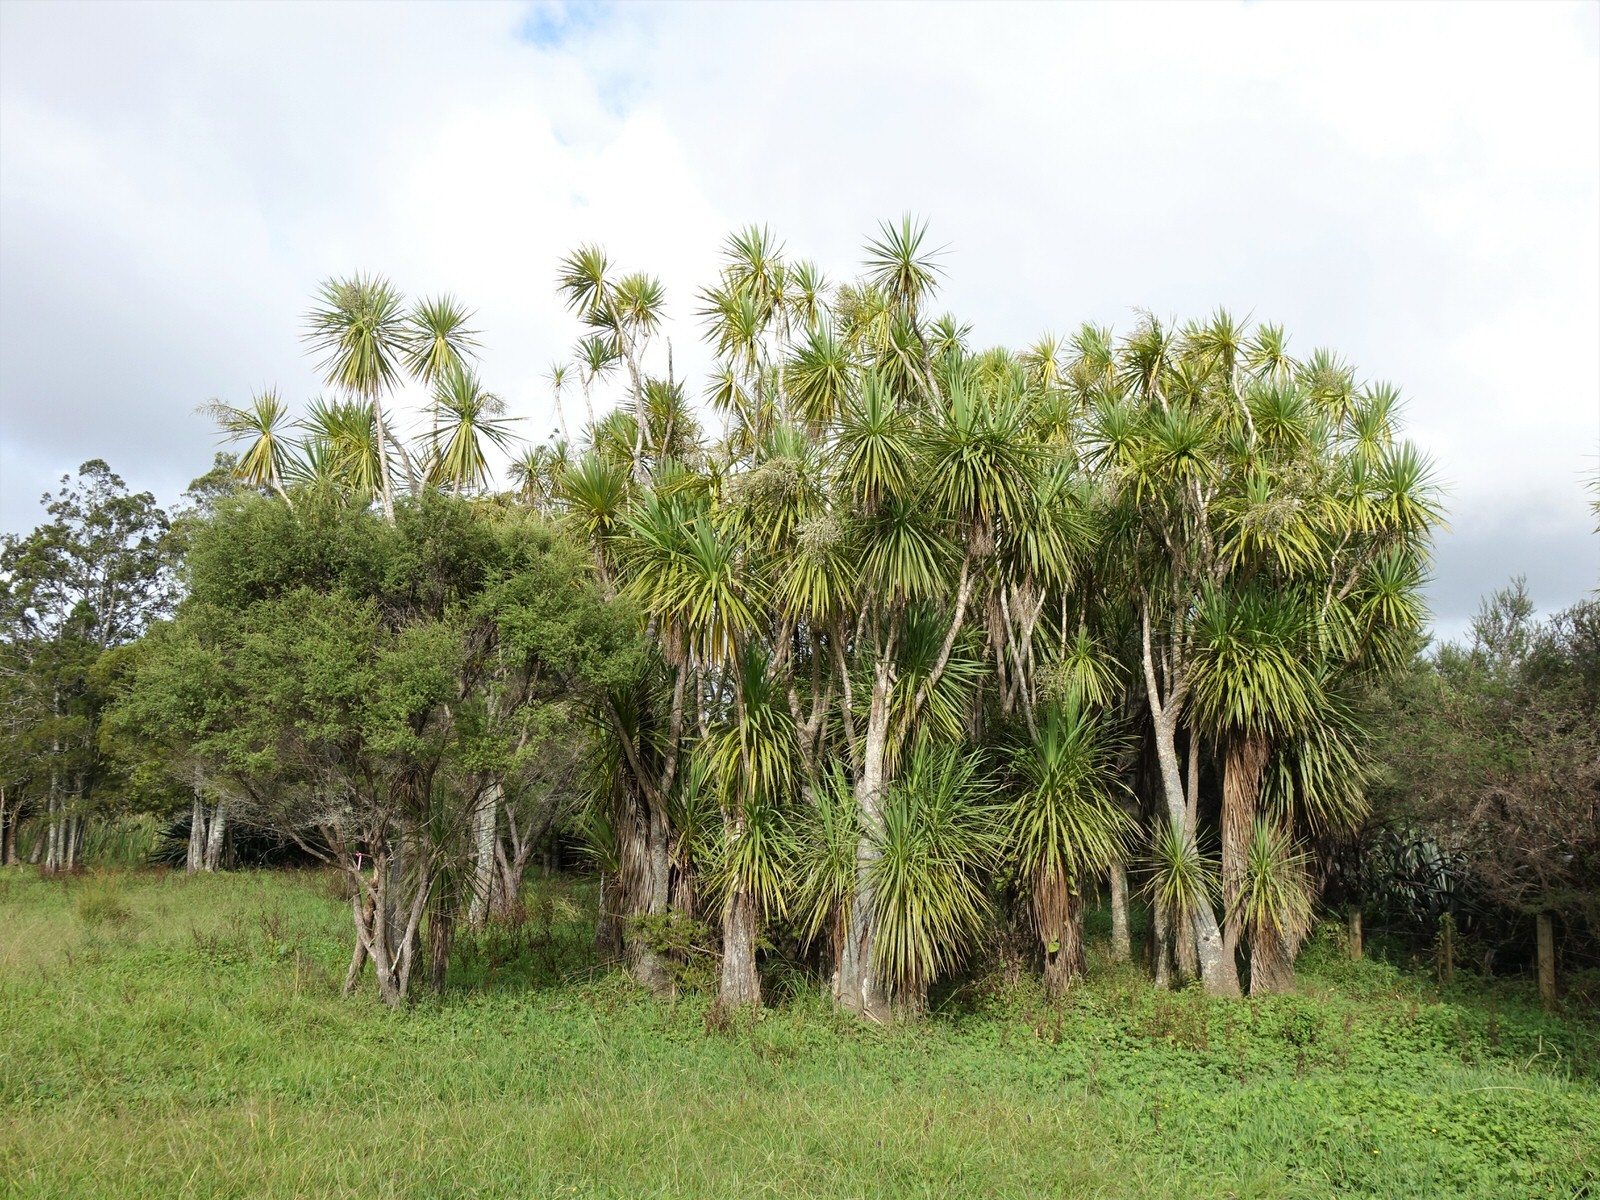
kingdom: Plantae
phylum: Tracheophyta
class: Liliopsida
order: Asparagales
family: Asparagaceae
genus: Cordyline
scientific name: Cordyline australis
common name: Cabbage-palm
